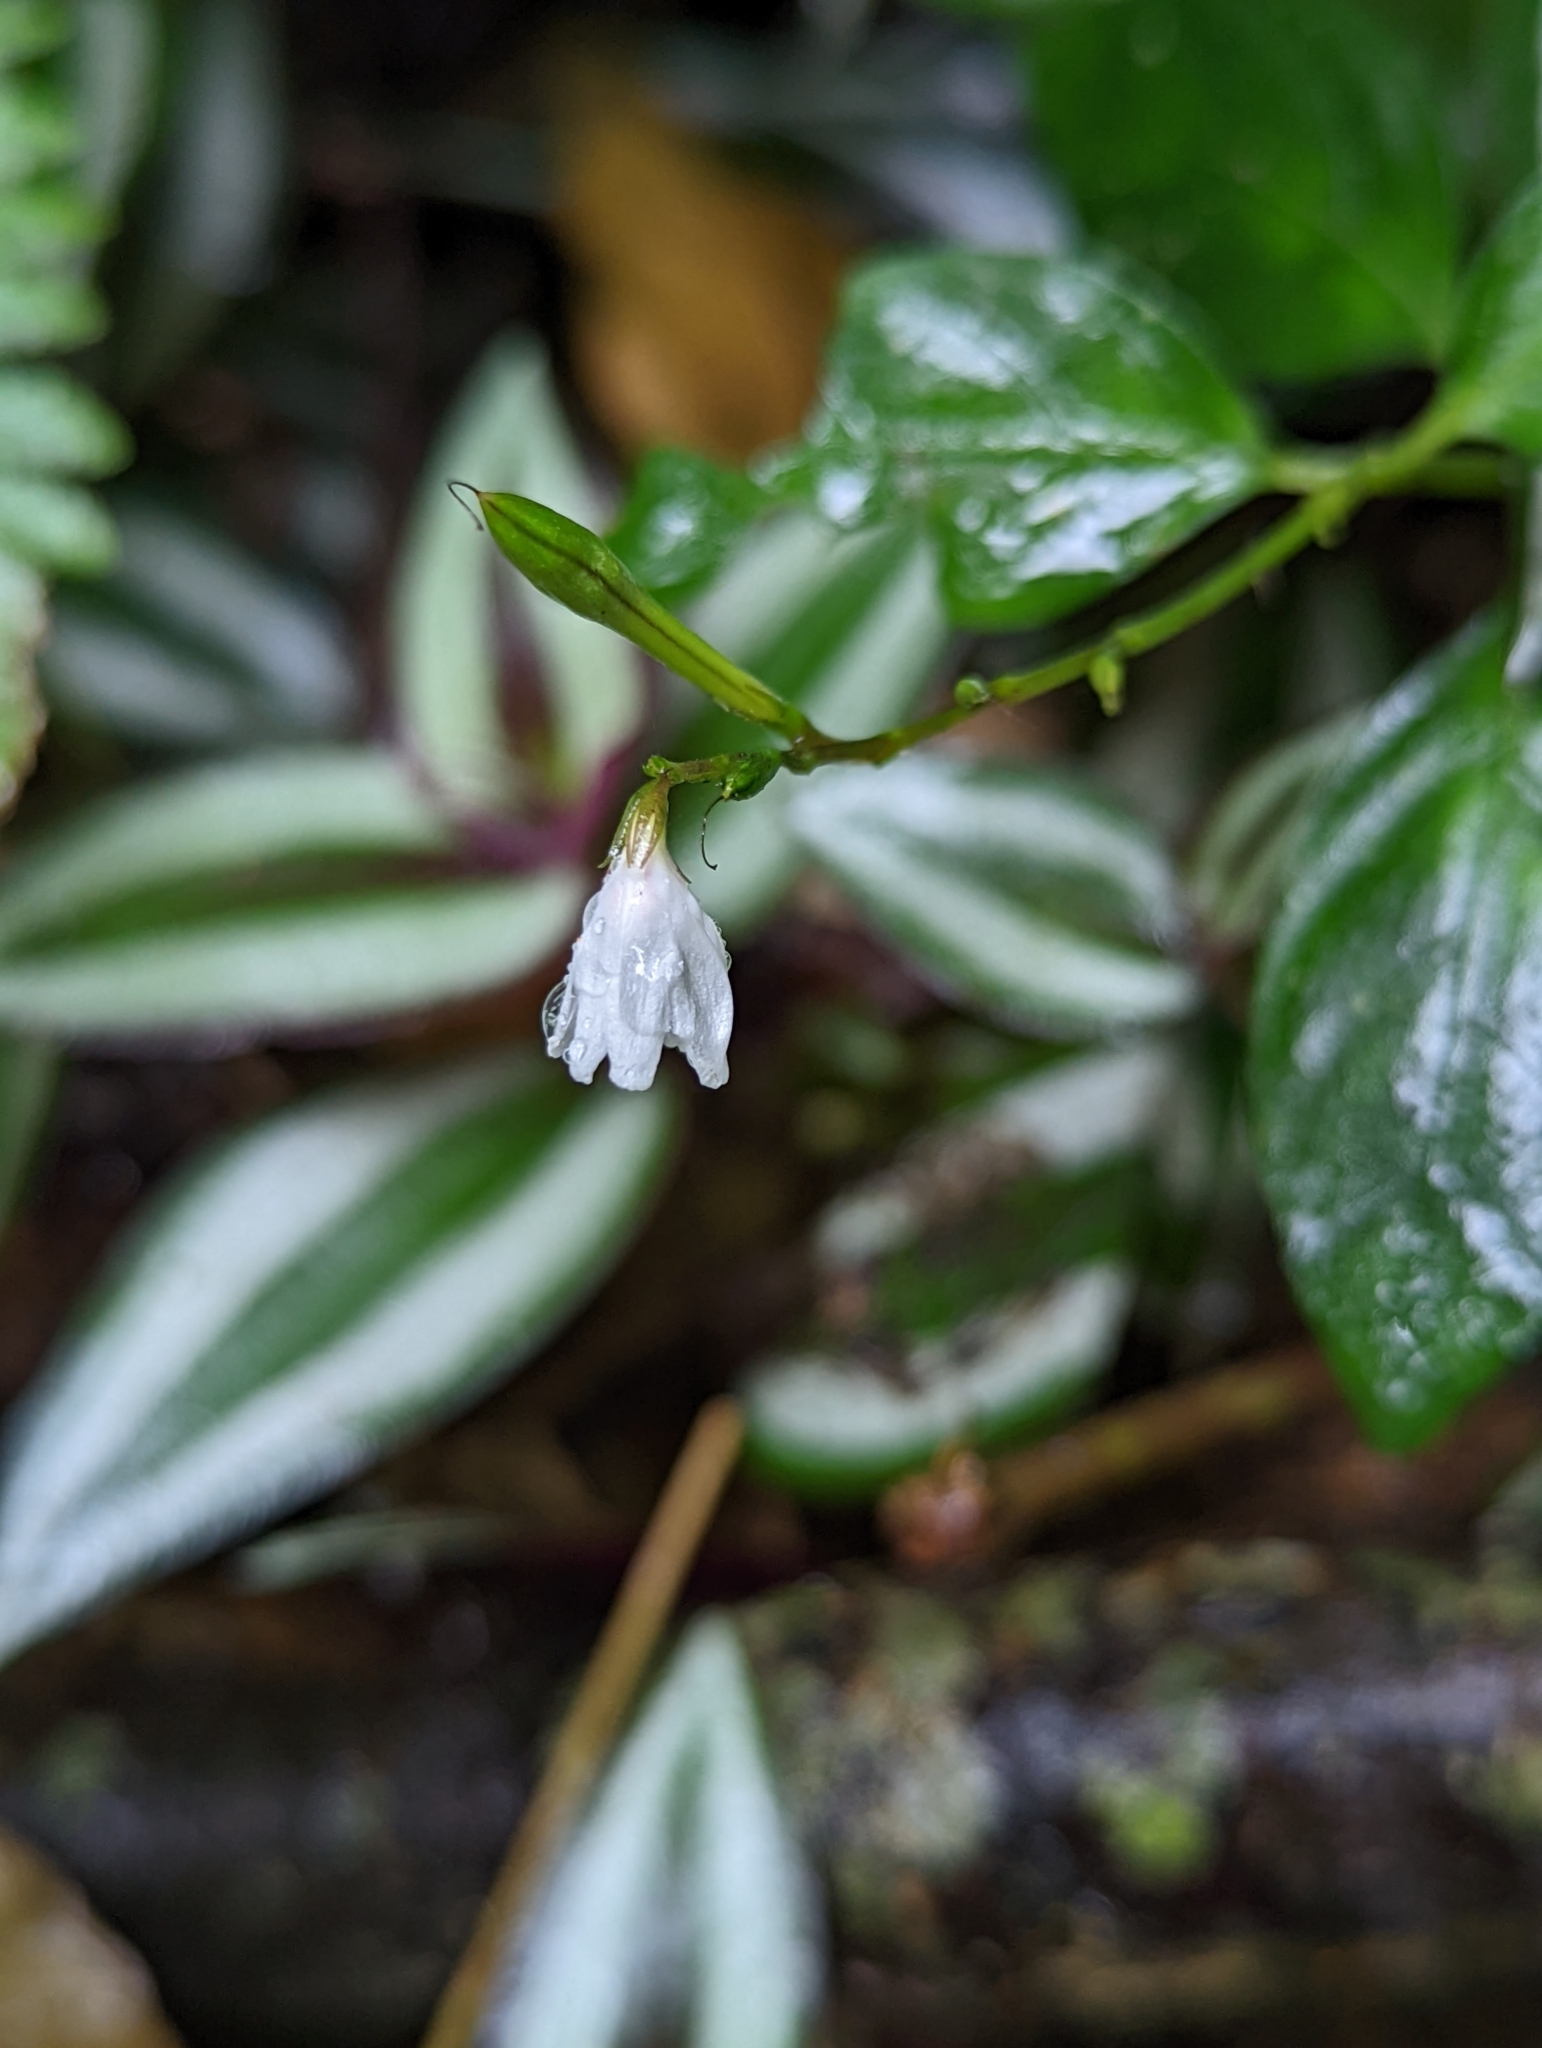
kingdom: Plantae
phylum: Tracheophyta
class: Magnoliopsida
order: Lamiales
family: Acanthaceae
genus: Codonacanthus
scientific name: Codonacanthus pauciflorus
